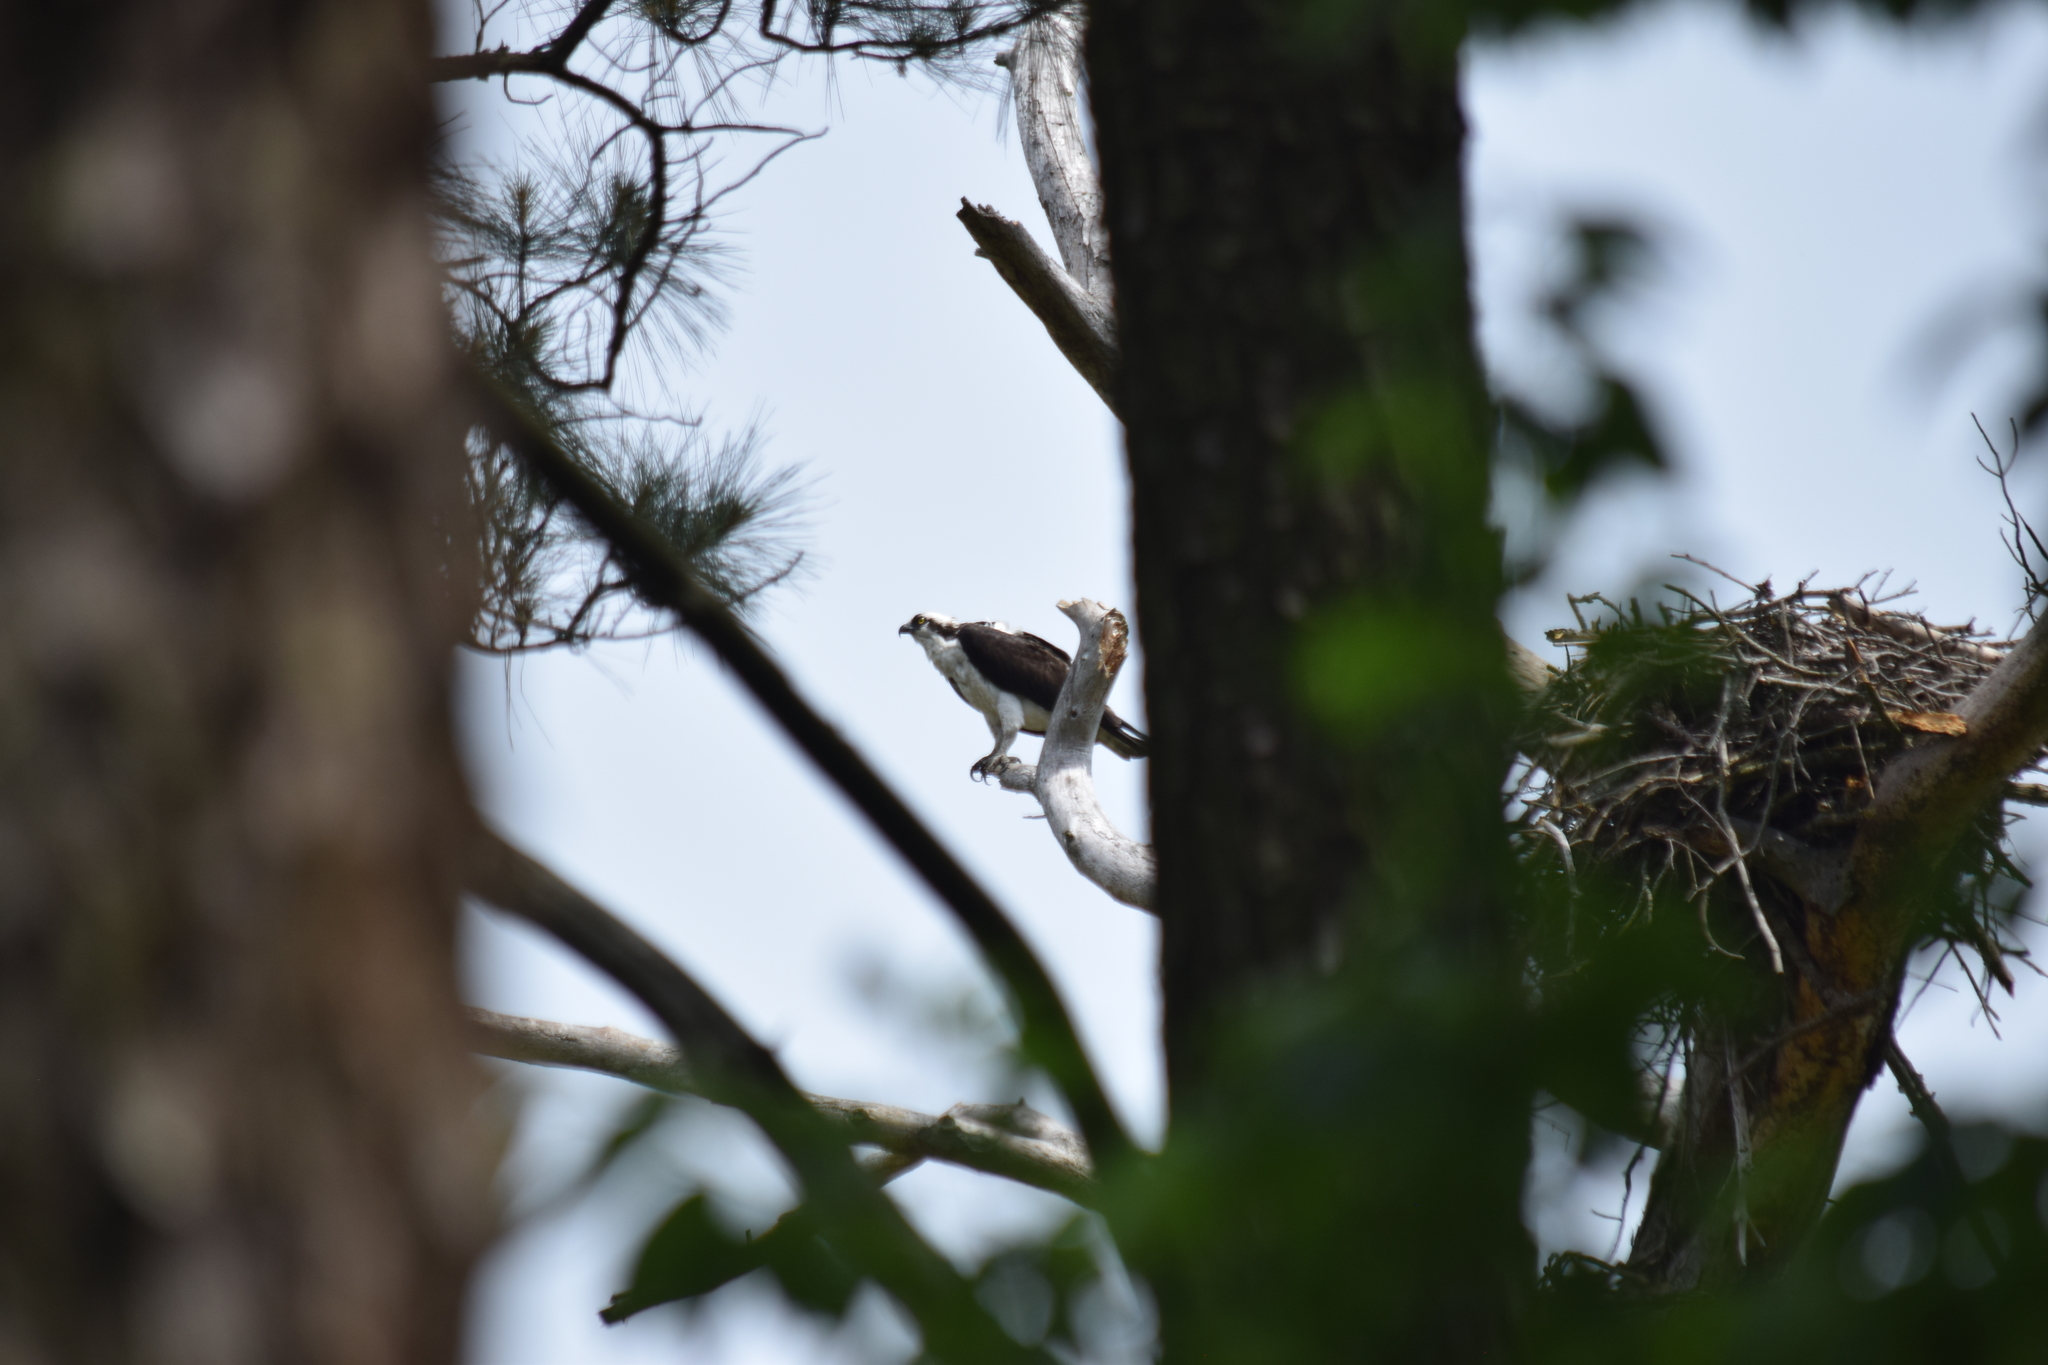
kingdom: Animalia
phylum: Chordata
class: Aves
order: Accipitriformes
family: Pandionidae
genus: Pandion
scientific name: Pandion haliaetus
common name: Osprey
